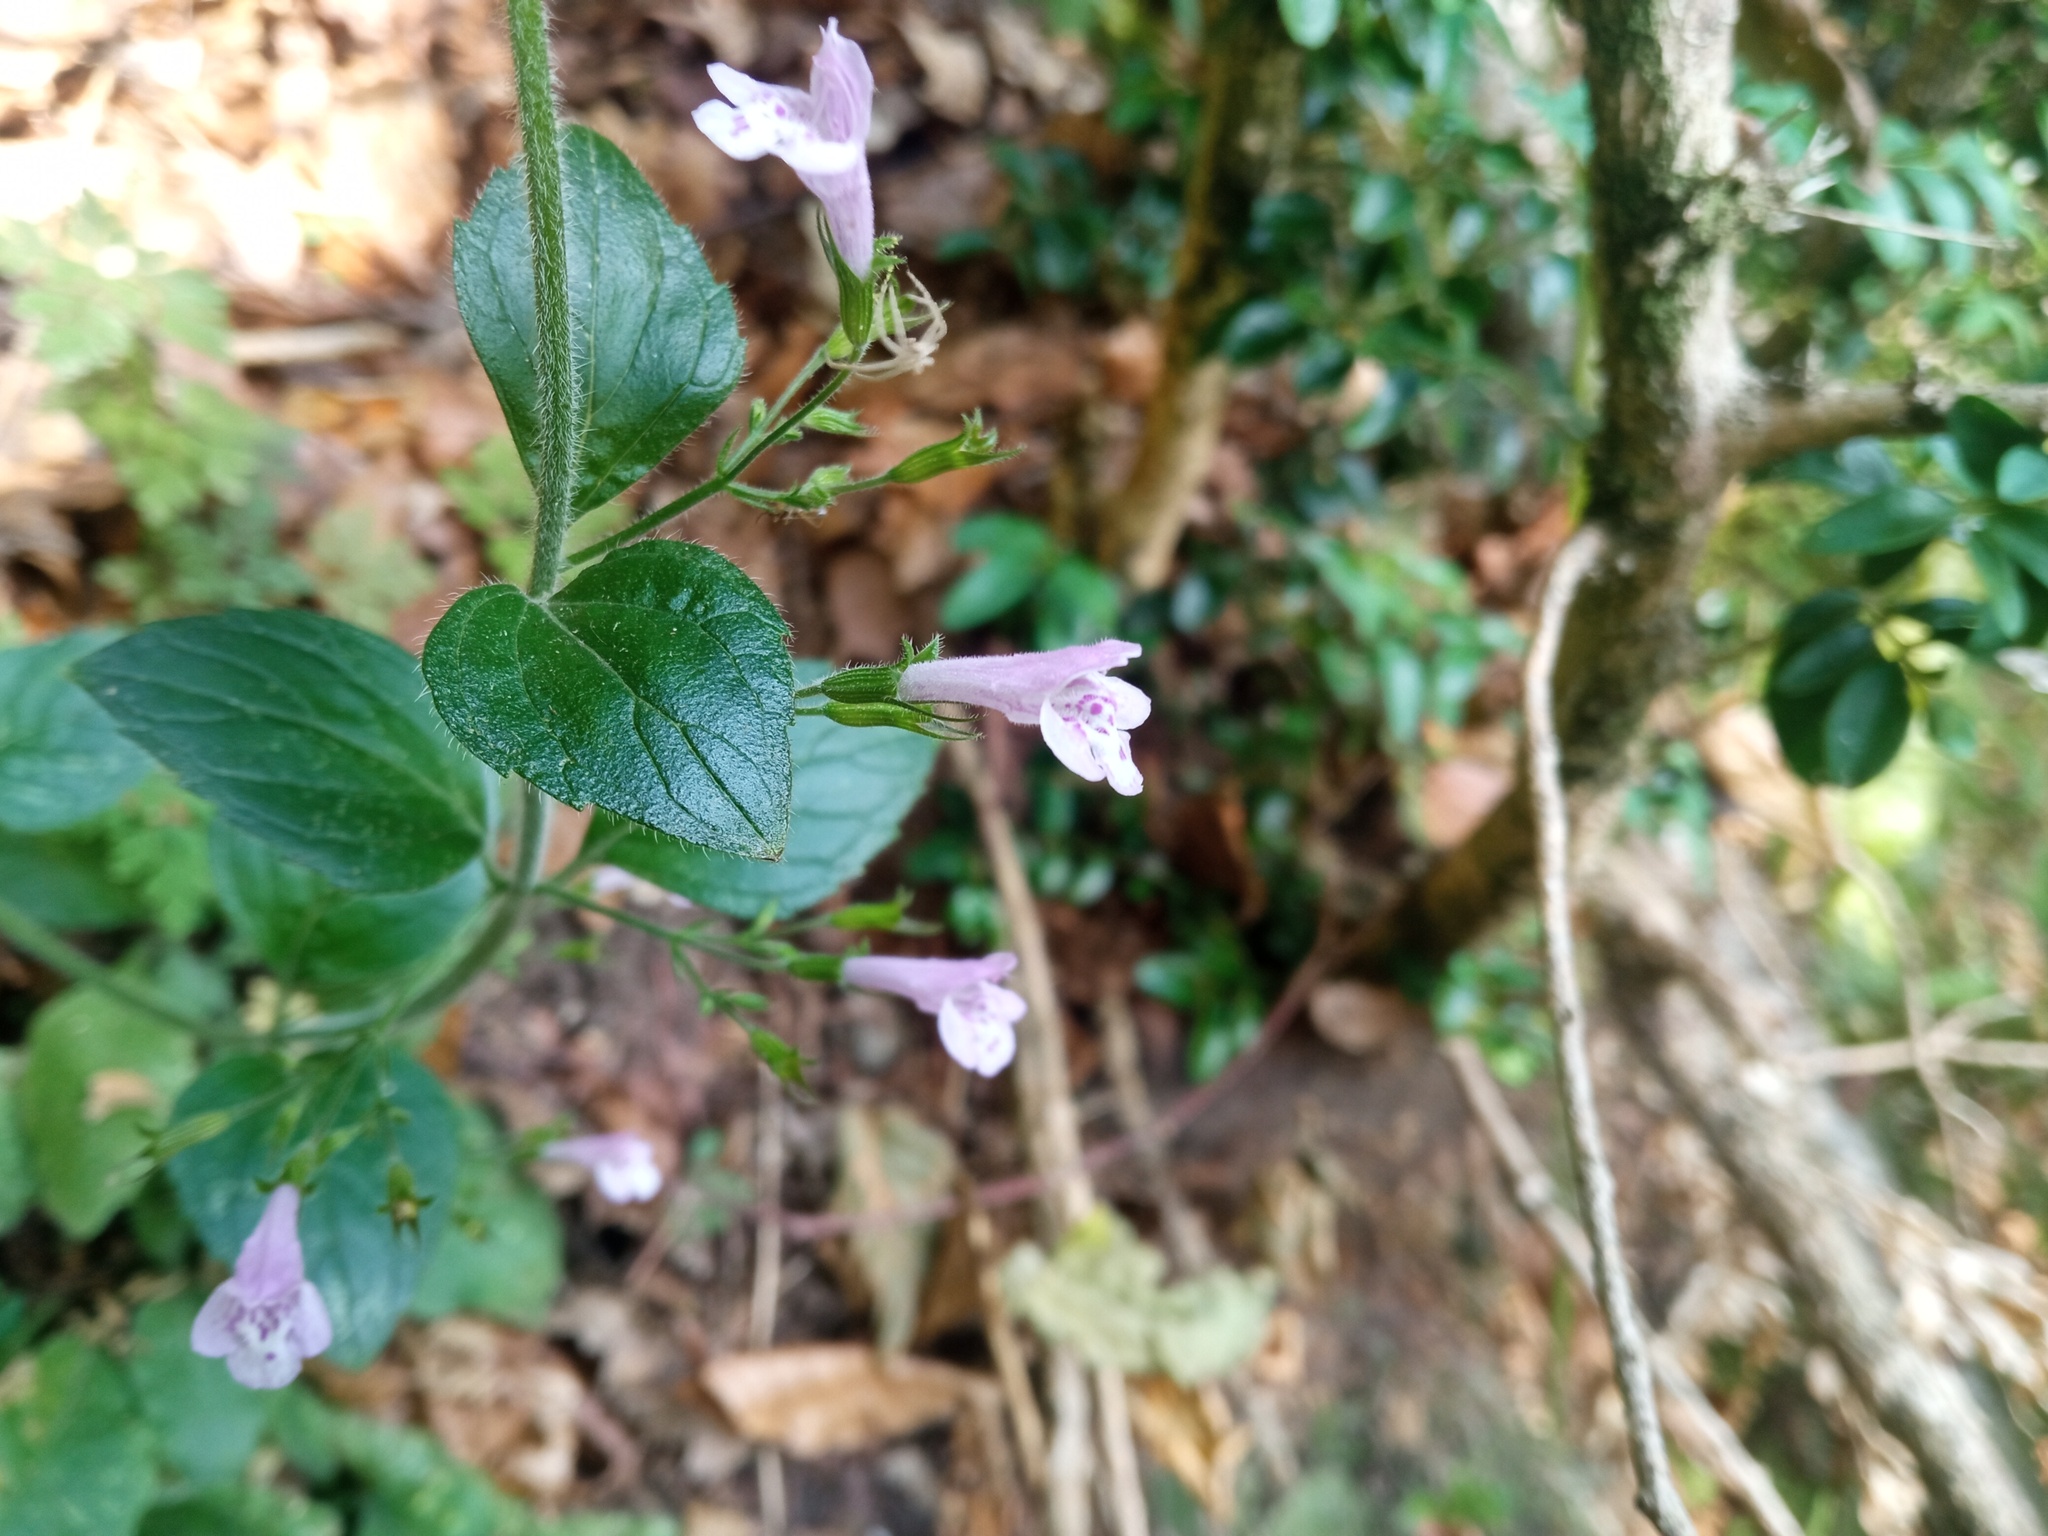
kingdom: Plantae
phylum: Tracheophyta
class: Magnoliopsida
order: Lamiales
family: Lamiaceae
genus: Clinopodium
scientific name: Clinopodium menthifolium
